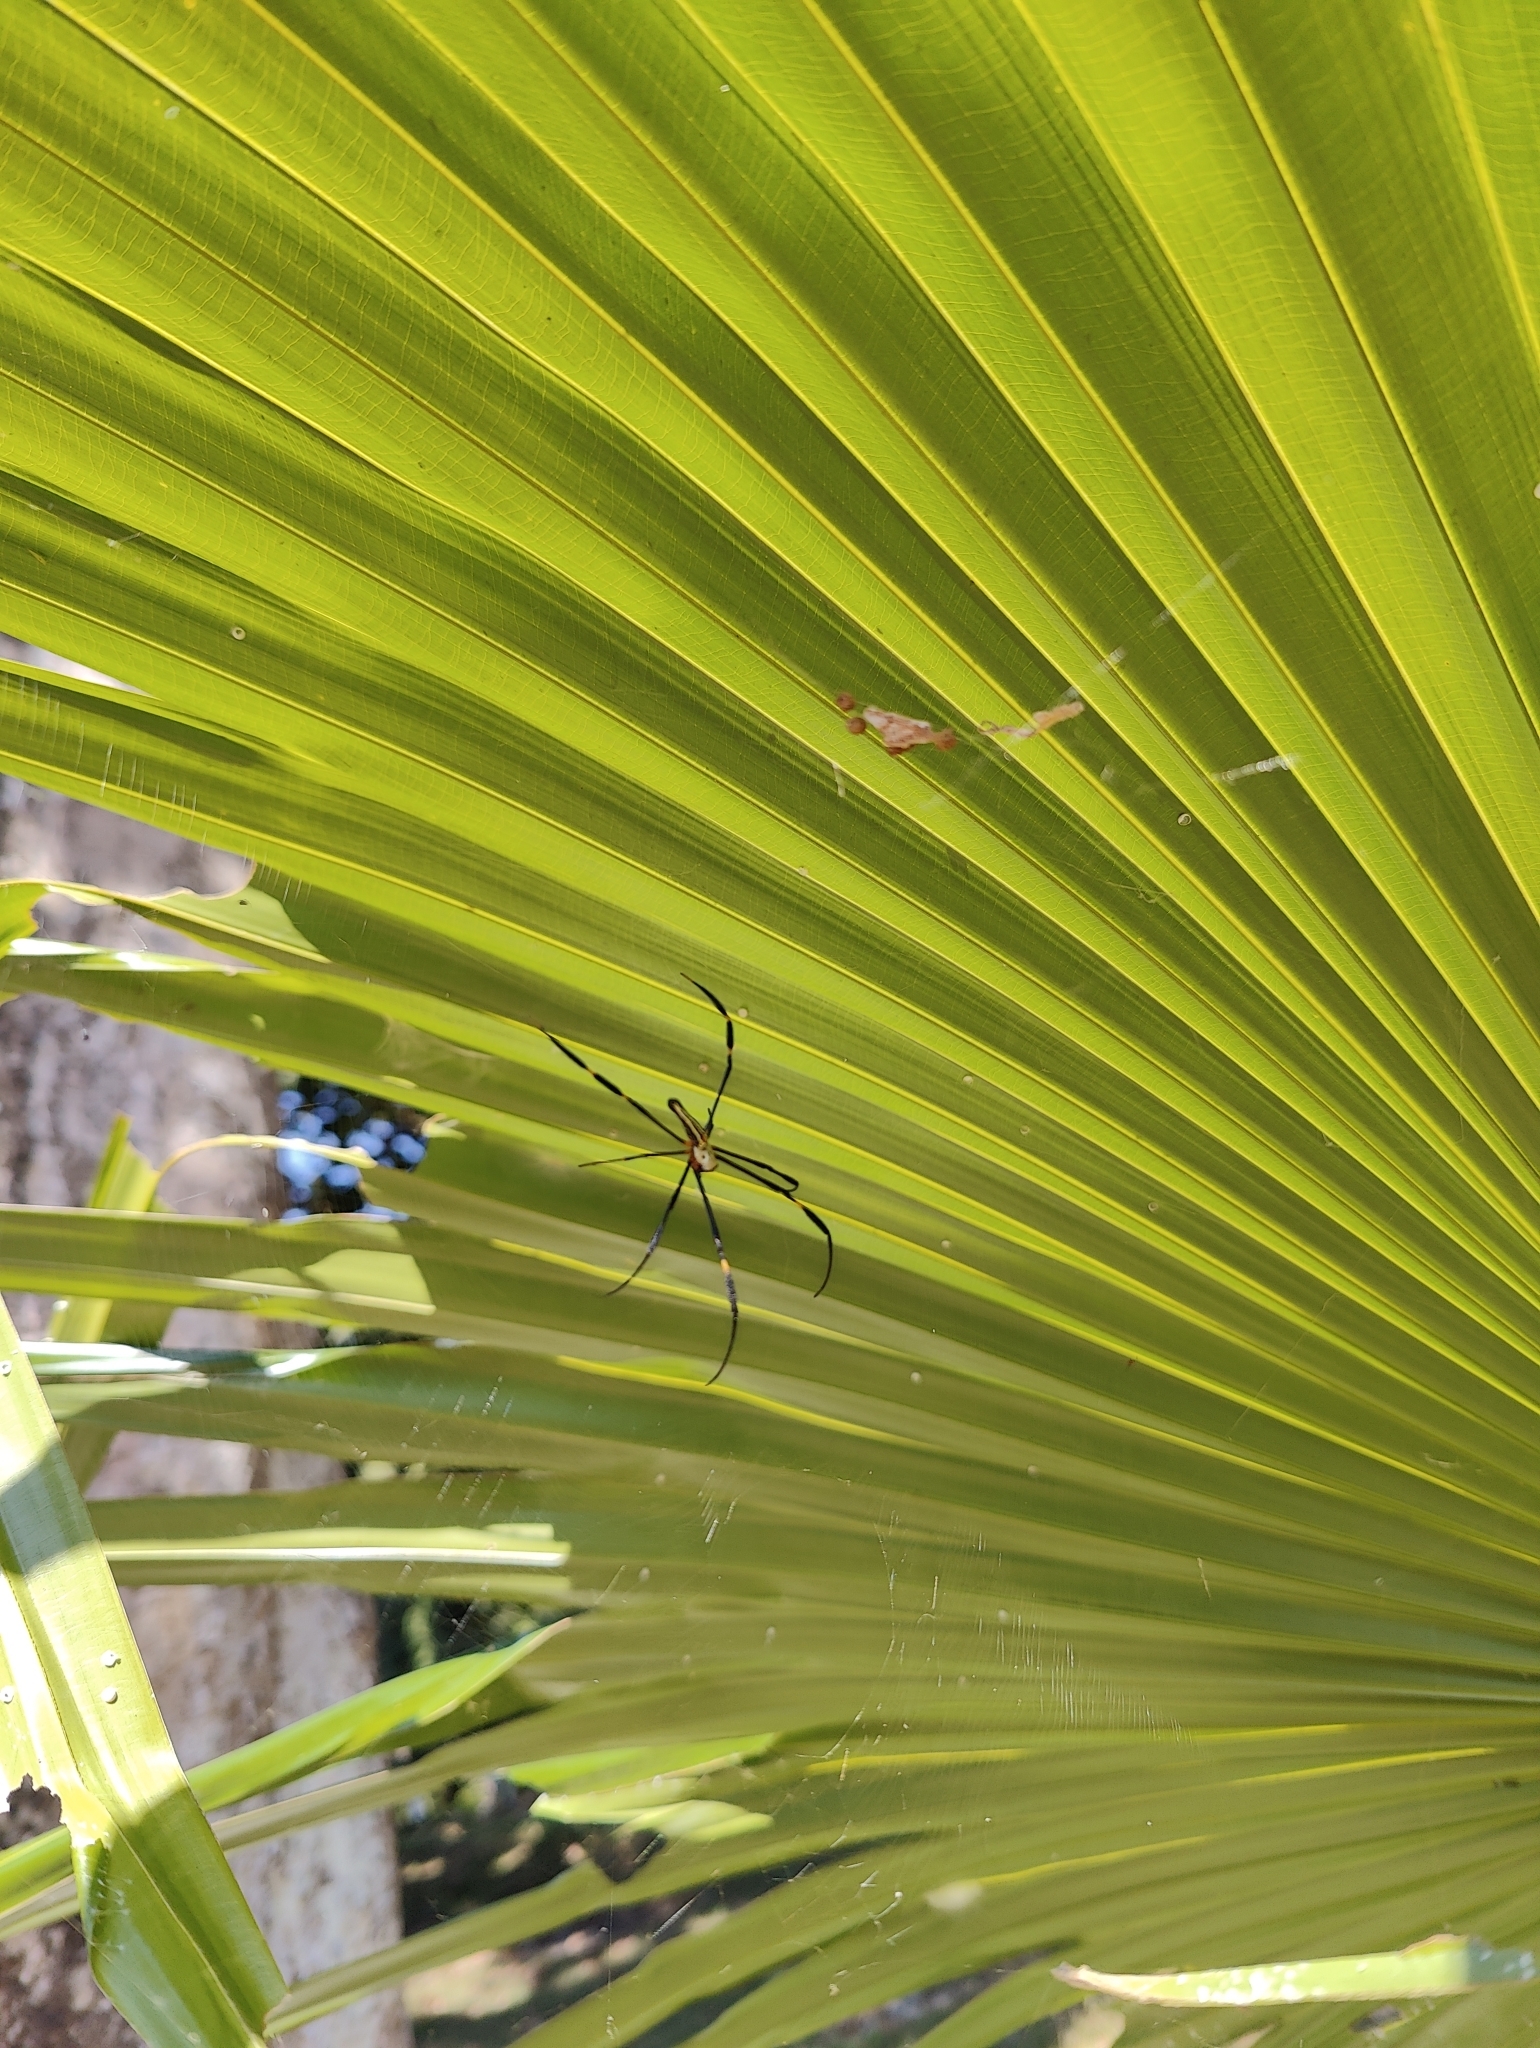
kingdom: Animalia
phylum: Arthropoda
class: Arachnida
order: Araneae
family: Araneidae
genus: Nephila
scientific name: Nephila pilipes
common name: Giant golden orb weaver
